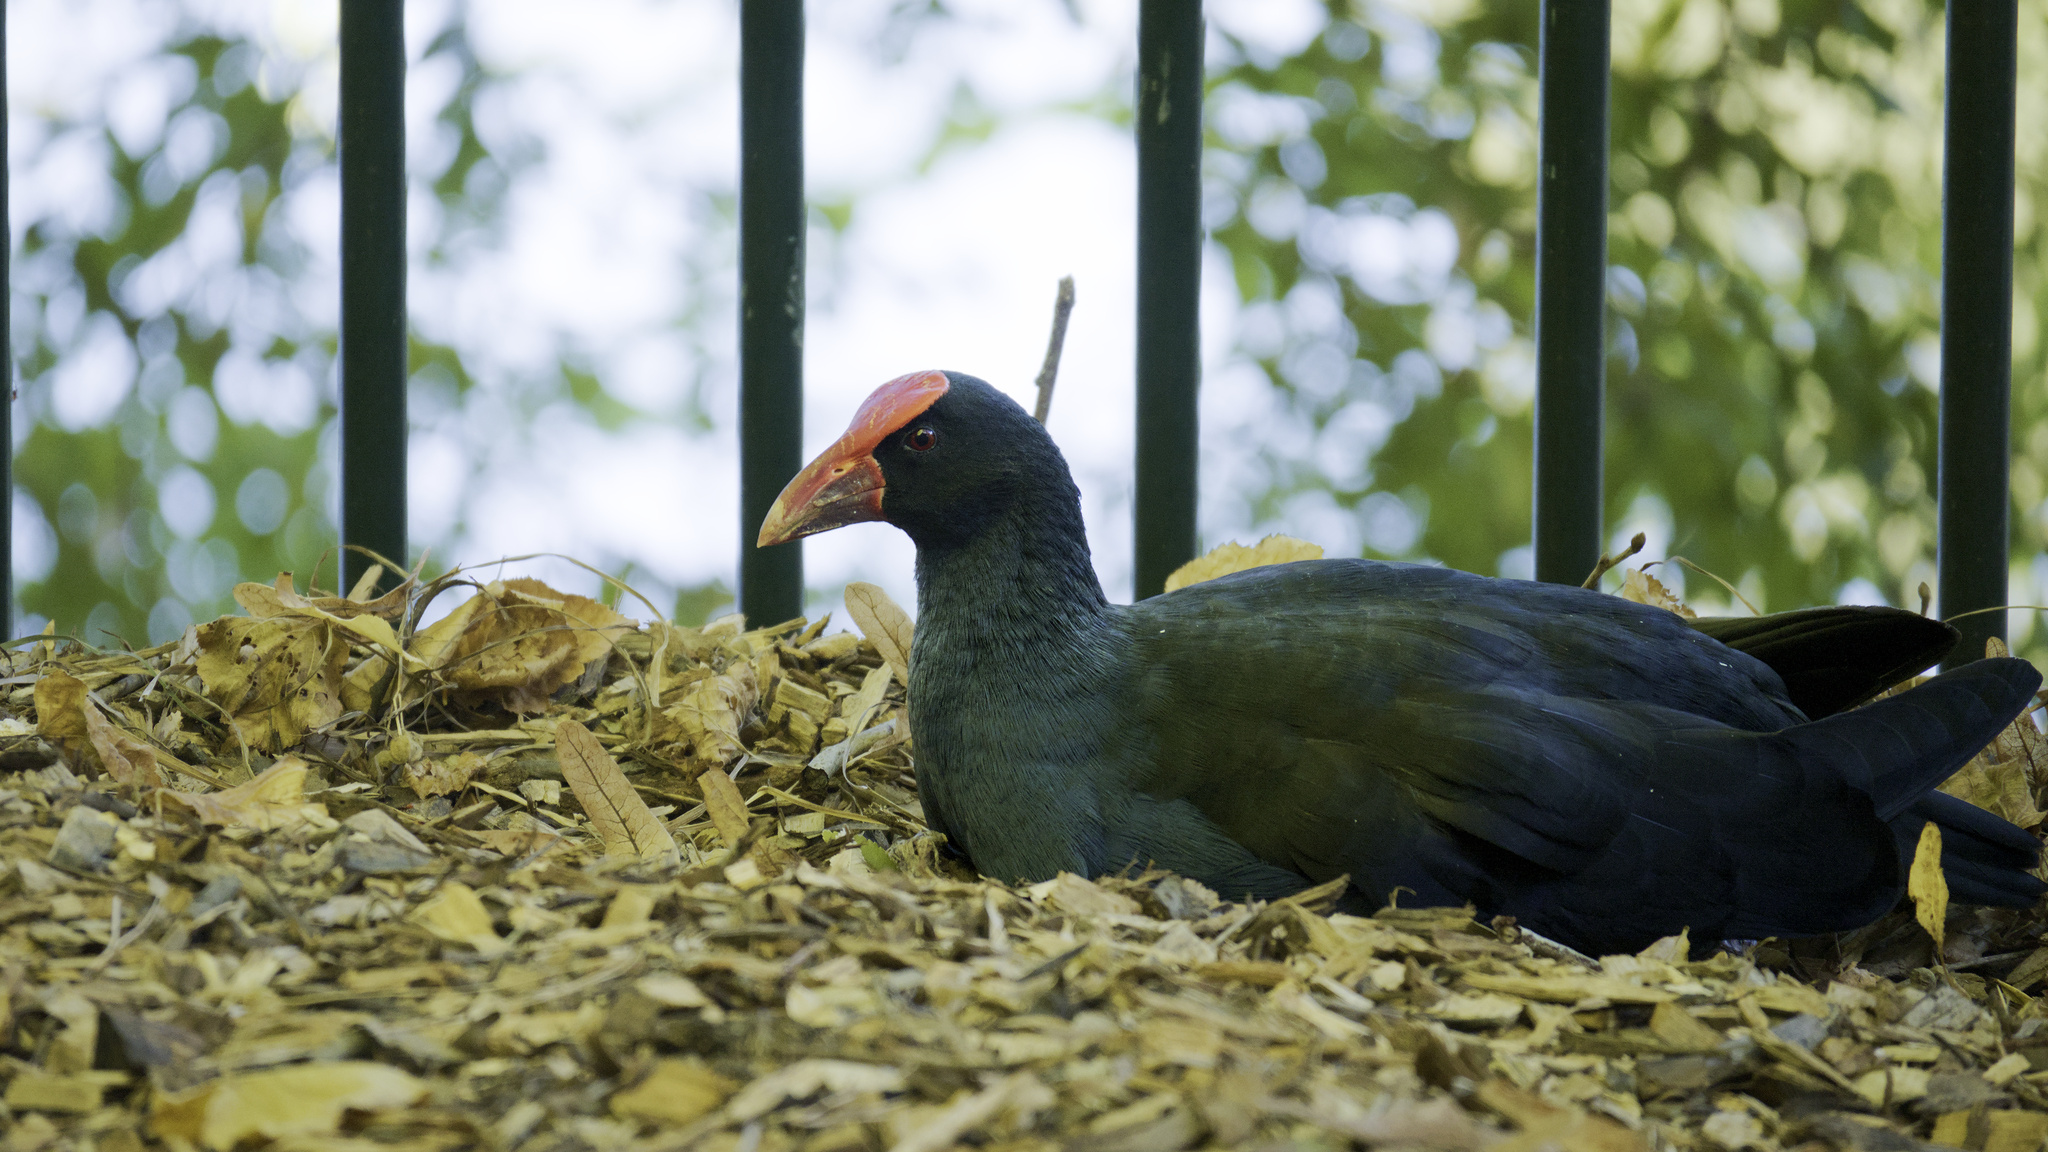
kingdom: Animalia
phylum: Chordata
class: Aves
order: Gruiformes
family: Rallidae
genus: Porphyrio
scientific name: Porphyrio melanotus
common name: Australasian swamphen
